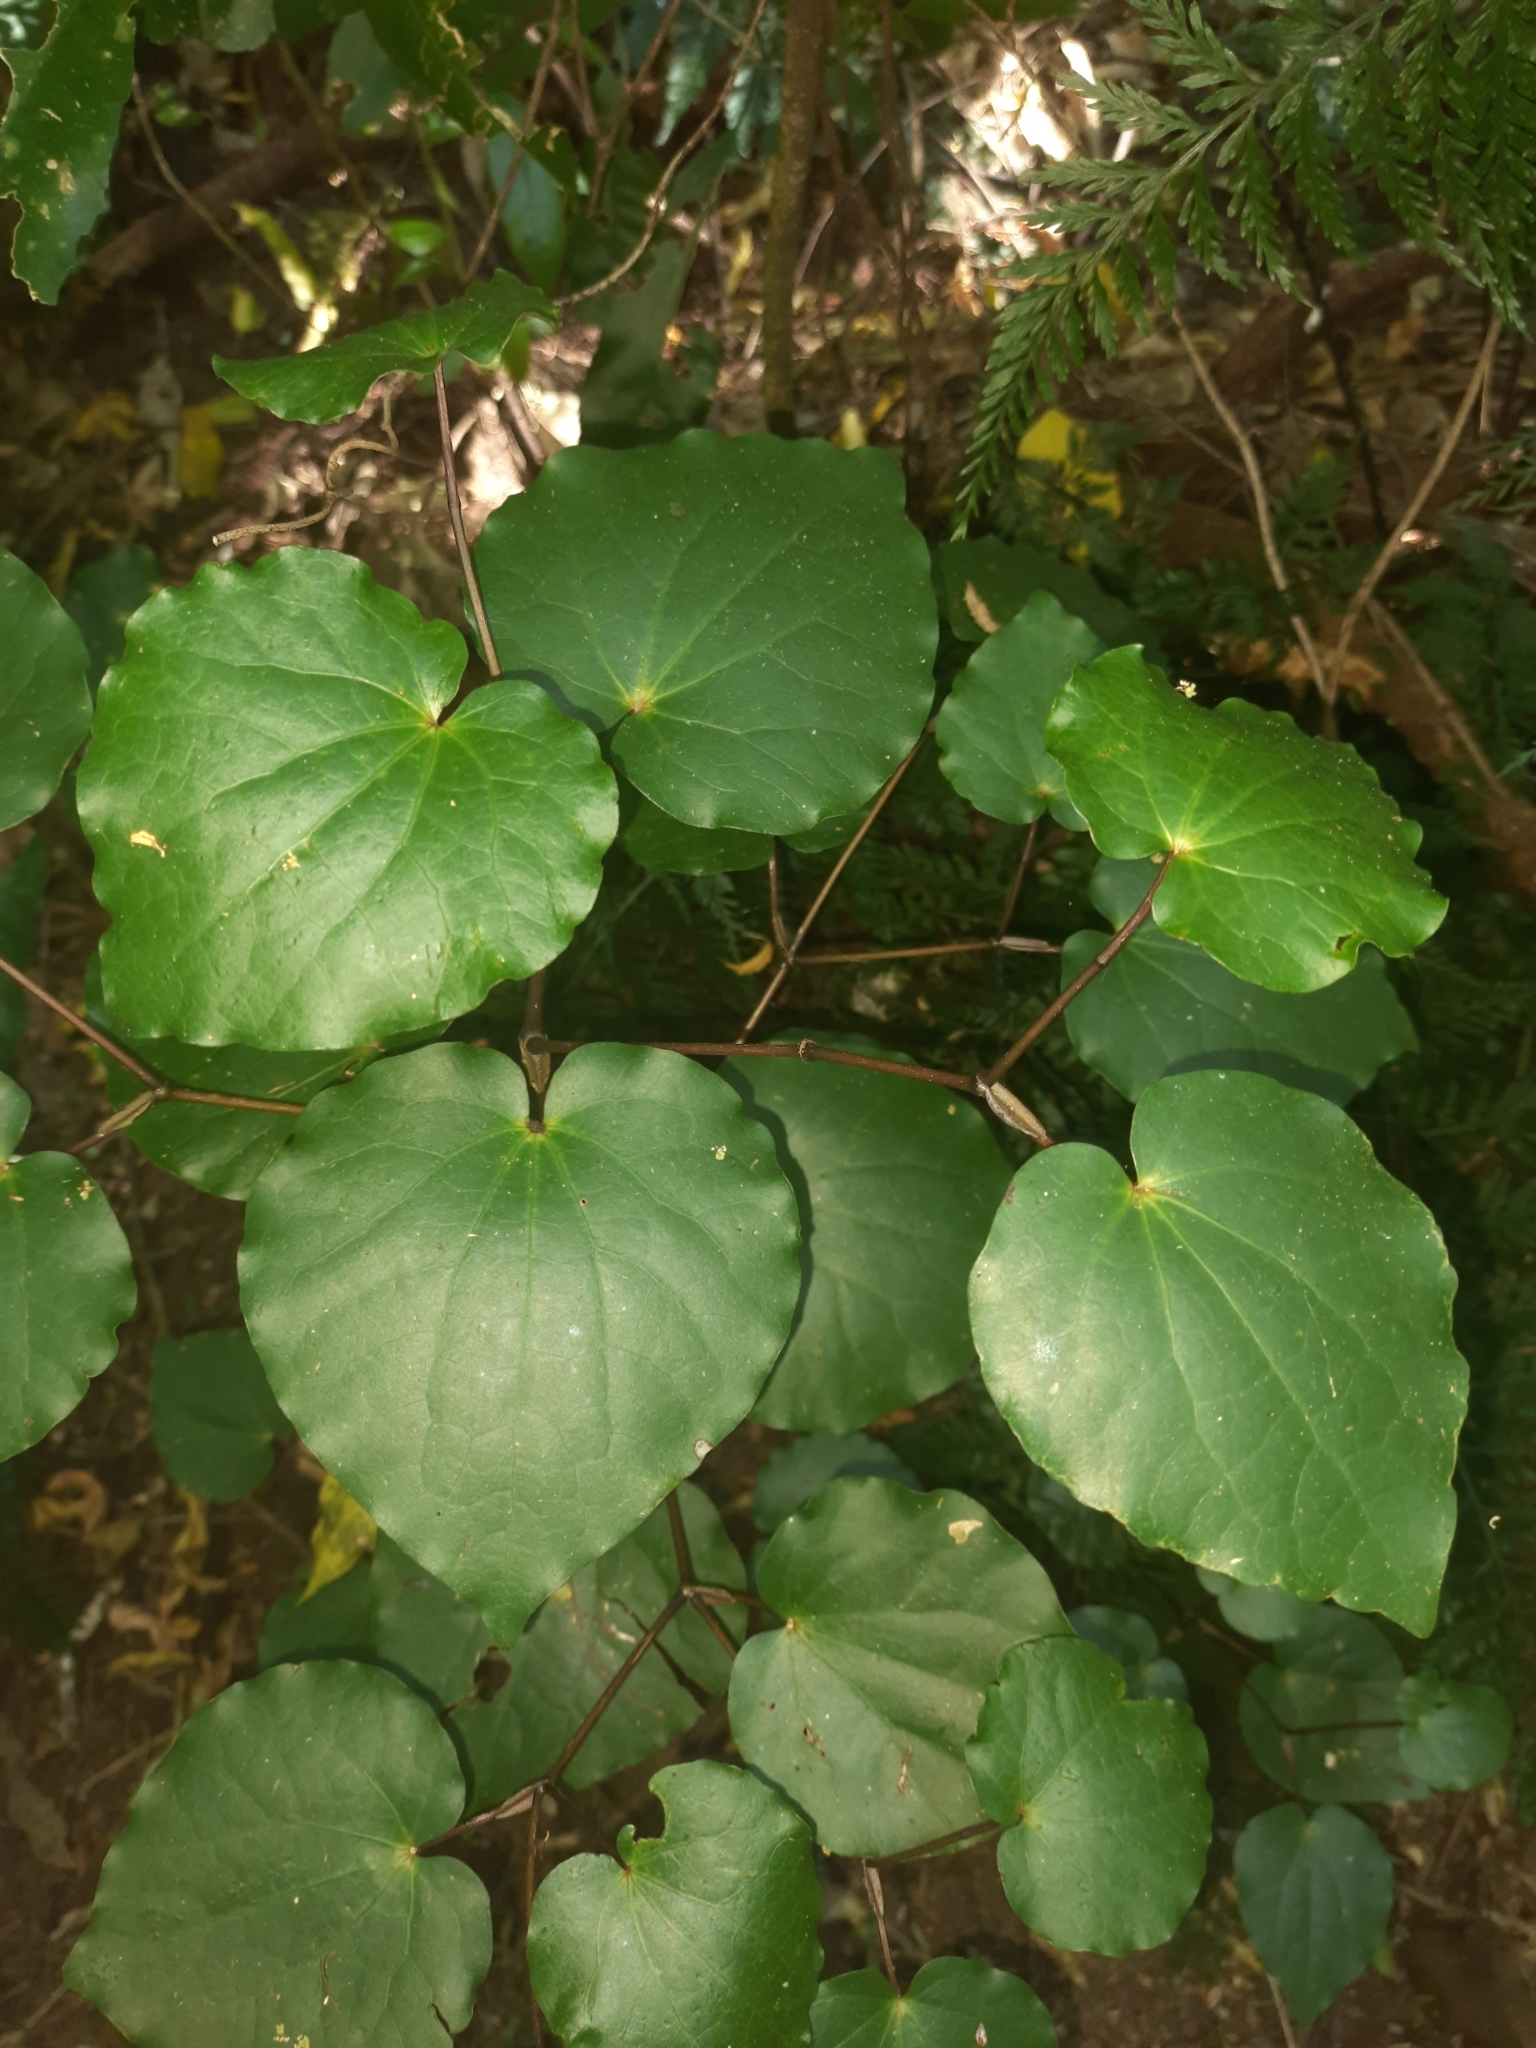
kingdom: Plantae
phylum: Tracheophyta
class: Magnoliopsida
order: Piperales
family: Piperaceae
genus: Macropiper
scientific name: Macropiper excelsum
